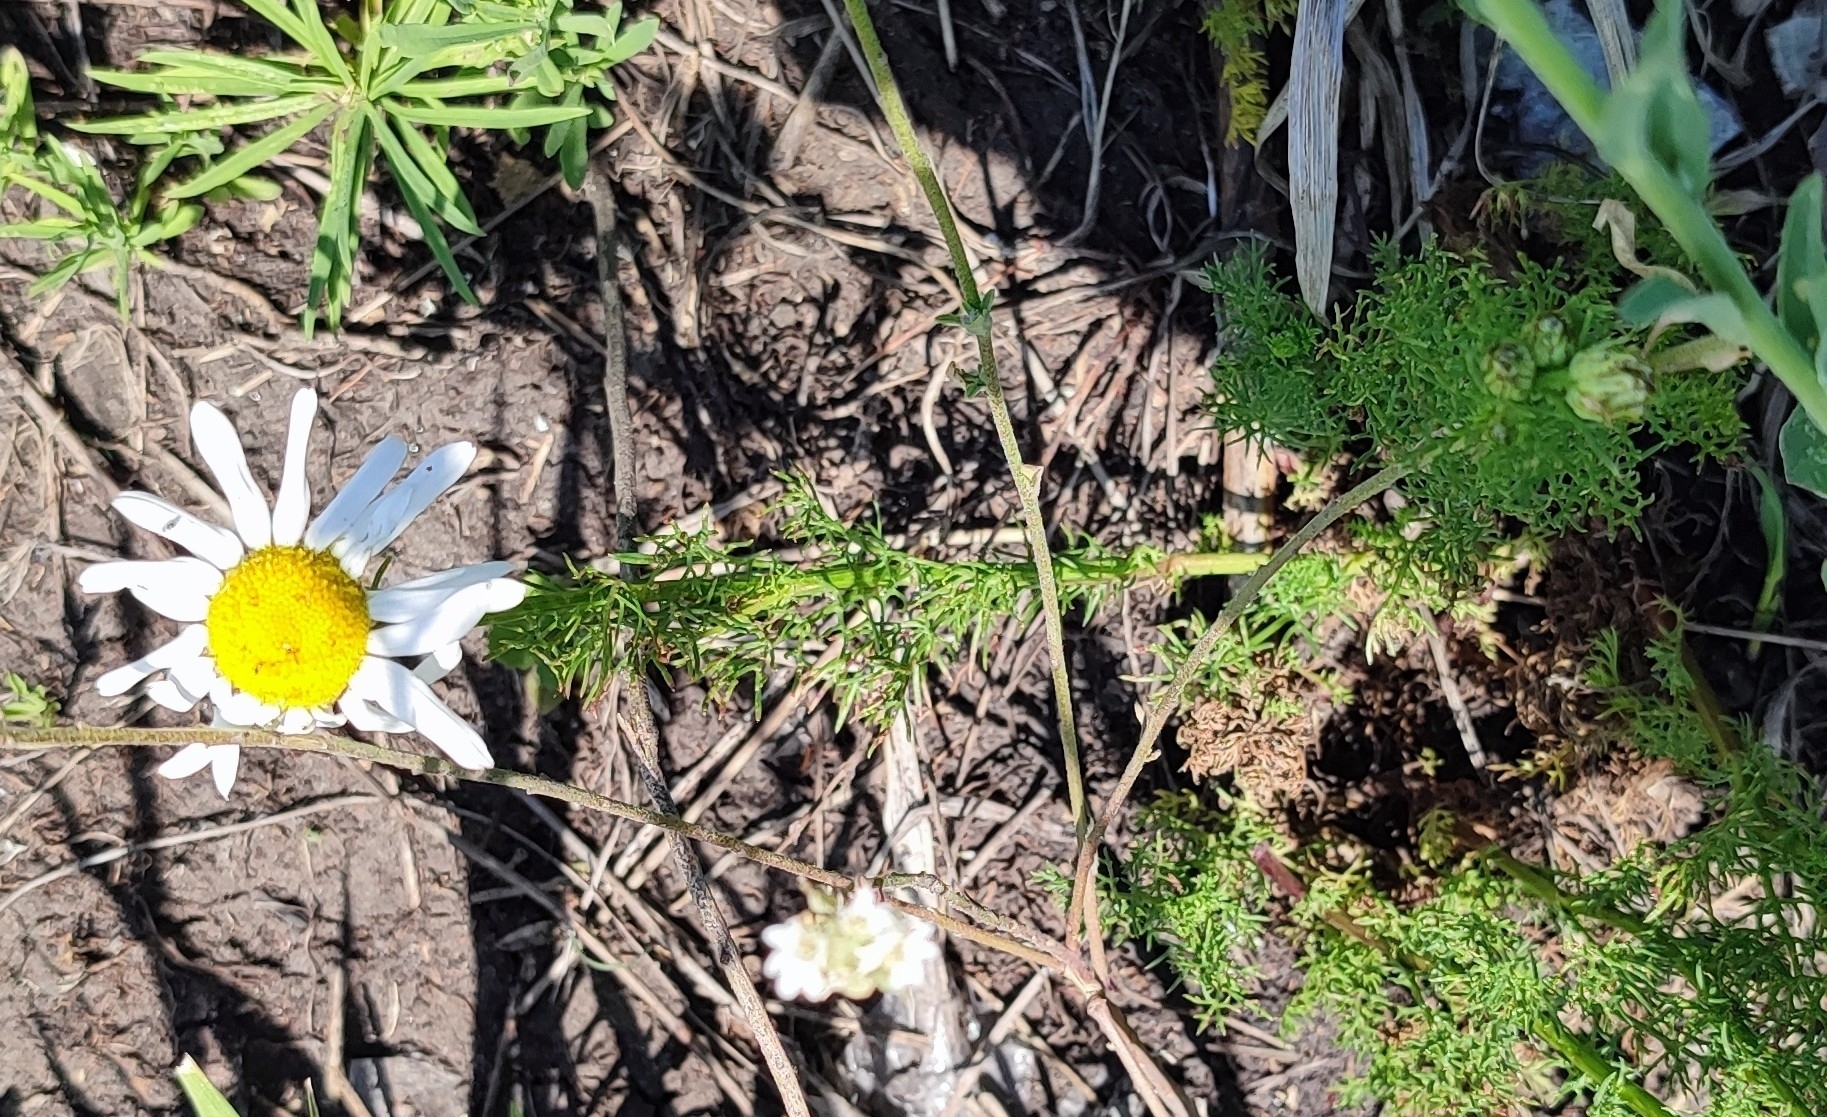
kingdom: Plantae
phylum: Tracheophyta
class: Magnoliopsida
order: Asterales
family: Asteraceae
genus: Tripleurospermum
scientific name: Tripleurospermum inodorum
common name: Scentless mayweed
